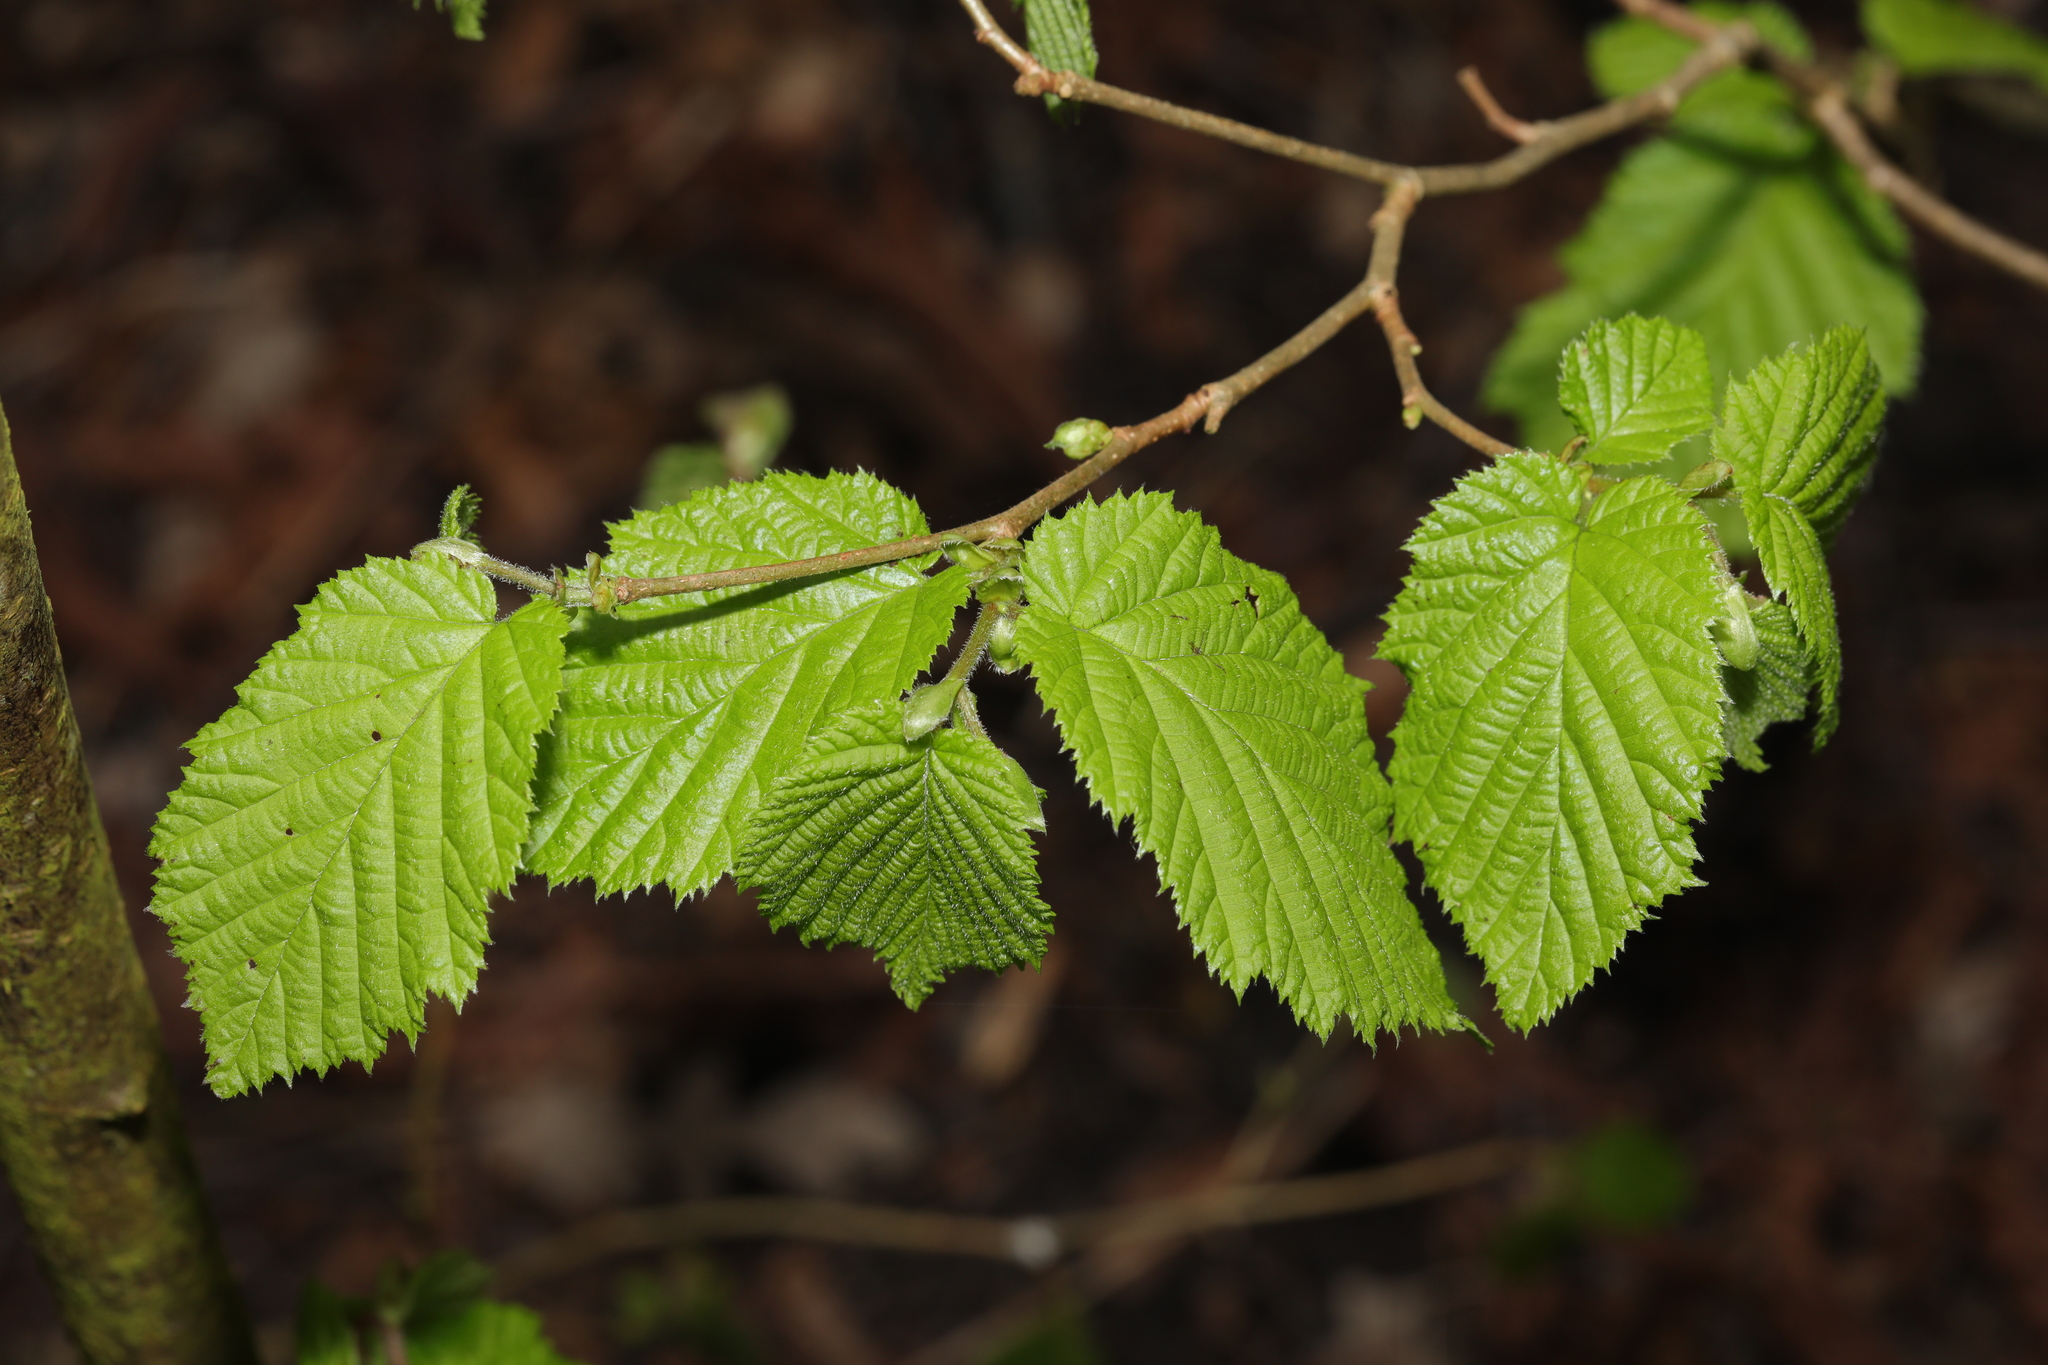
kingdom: Plantae
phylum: Tracheophyta
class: Magnoliopsida
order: Fagales
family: Betulaceae
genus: Corylus
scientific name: Corylus avellana
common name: European hazel
